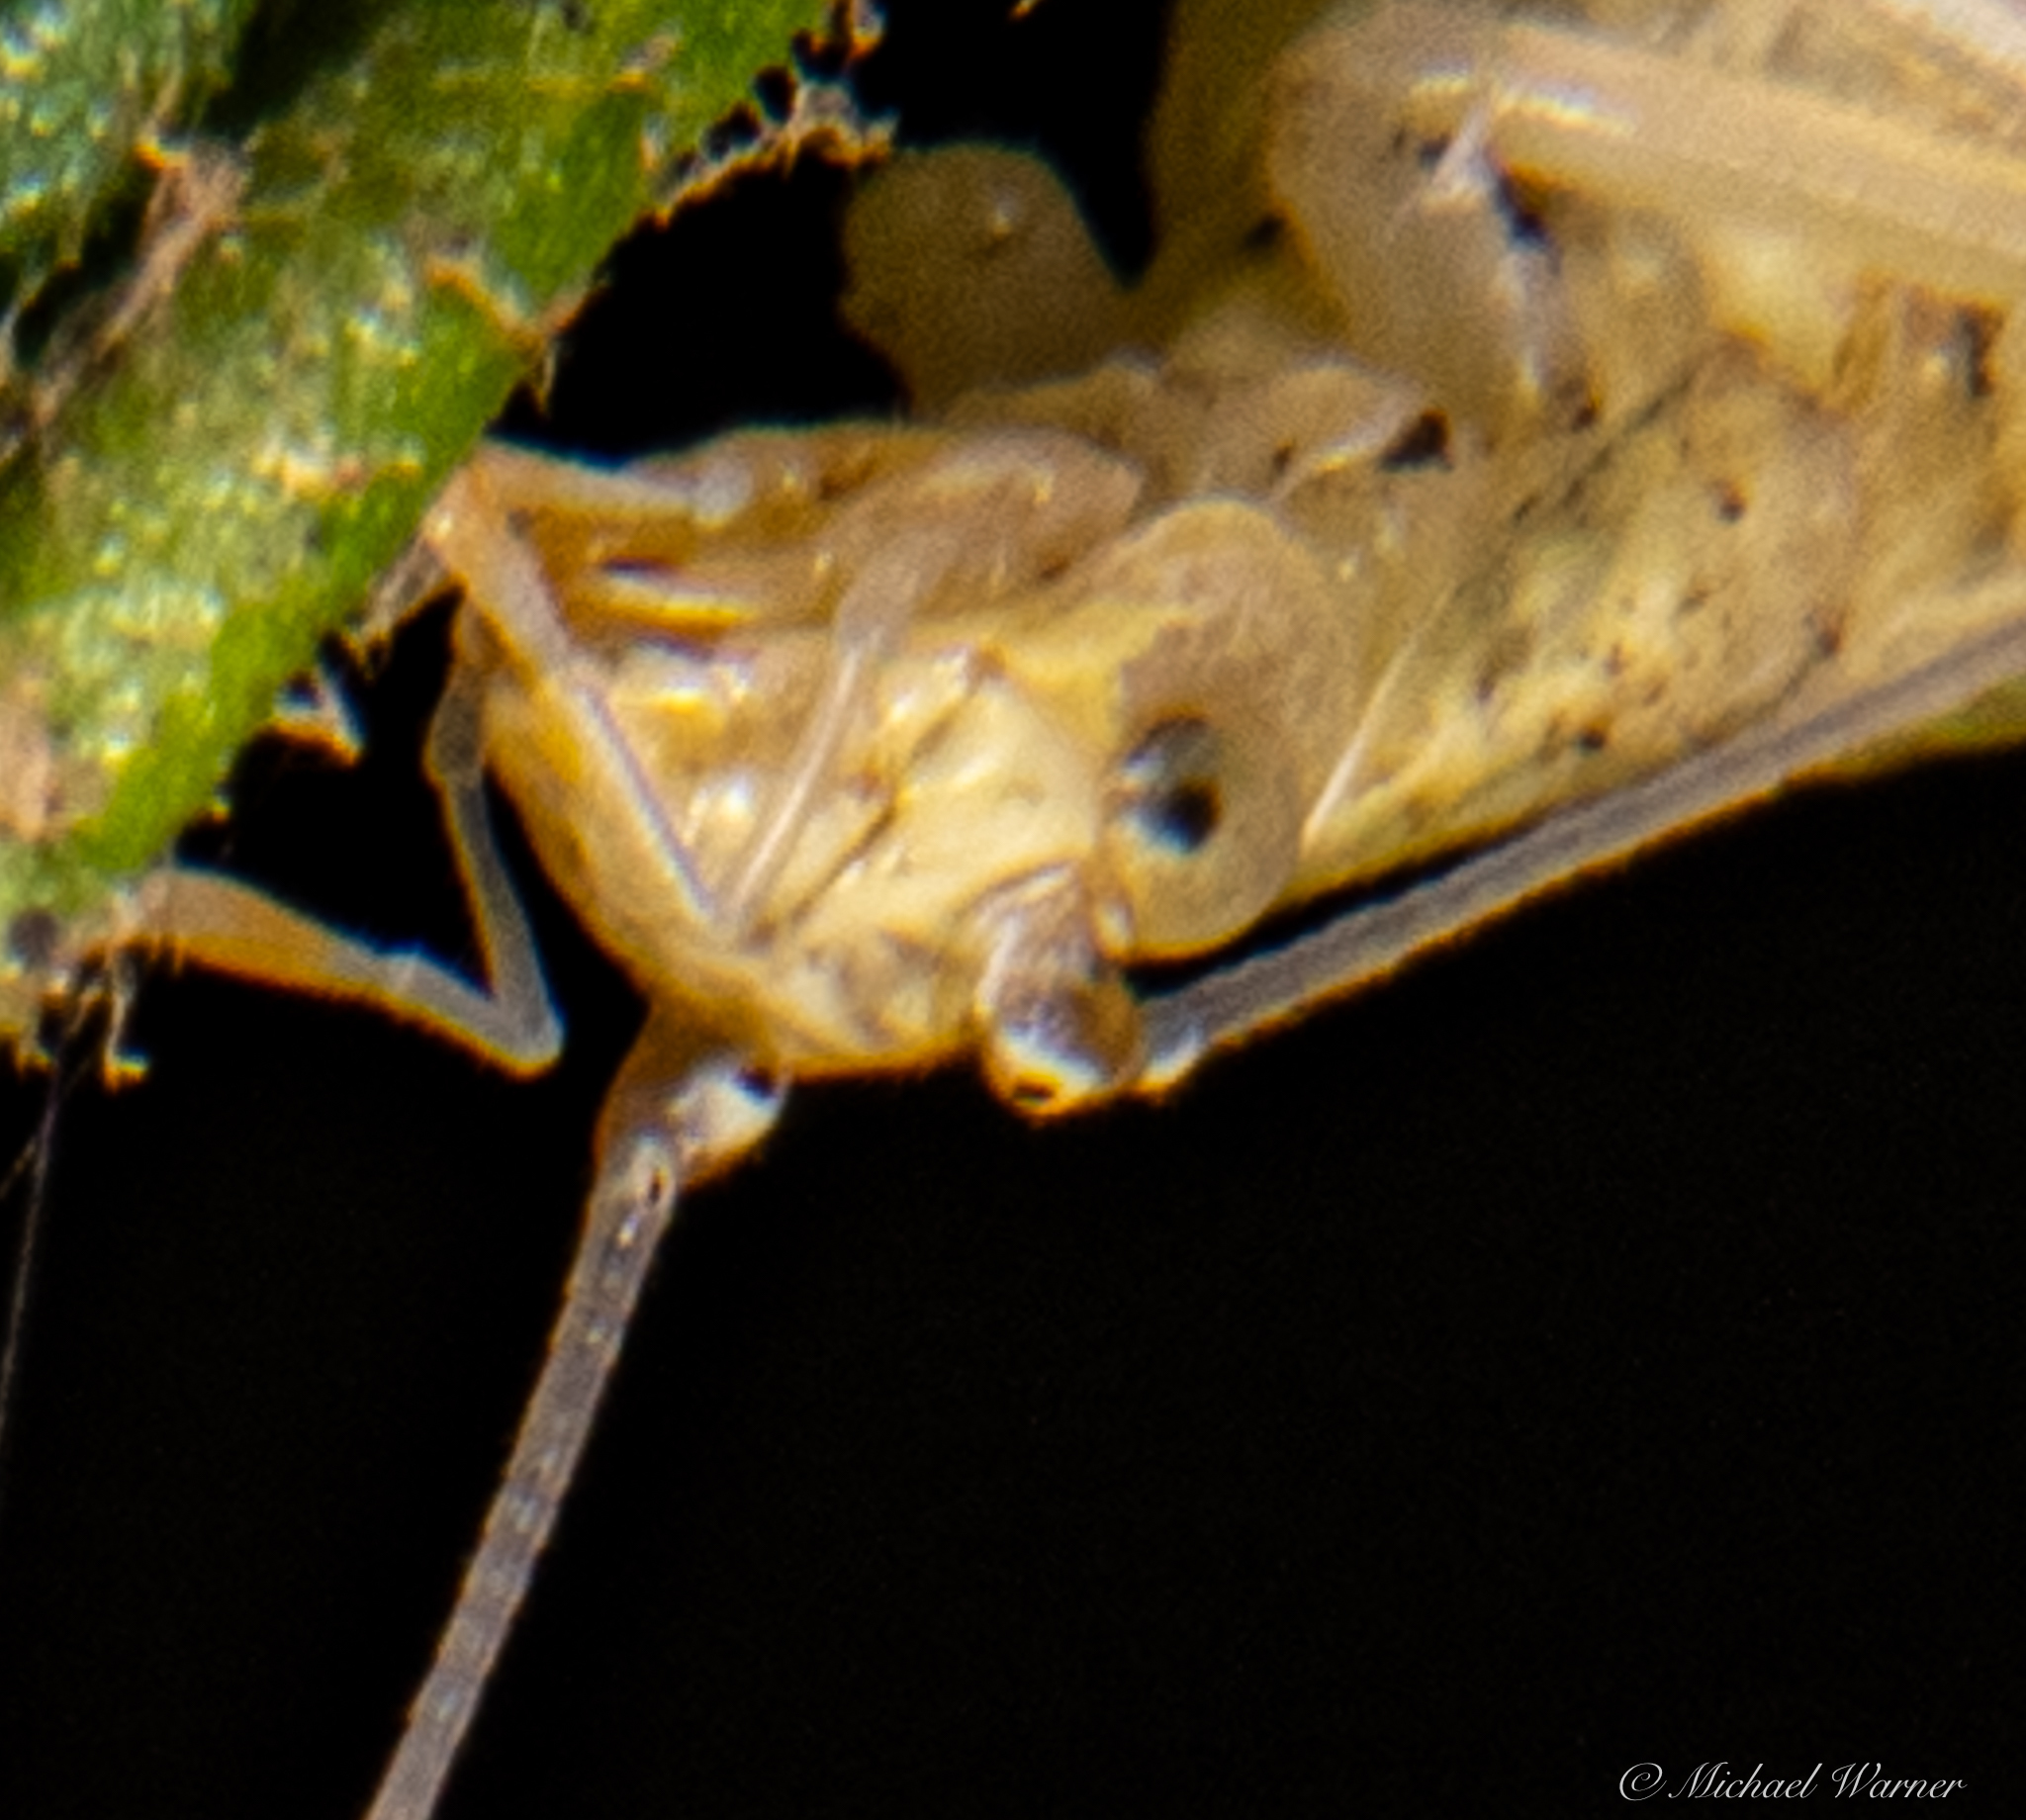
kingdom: Animalia
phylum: Arthropoda
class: Insecta
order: Orthoptera
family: Gryllidae
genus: Oecanthus
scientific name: Oecanthus rileyi
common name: Riley's tree cricket
